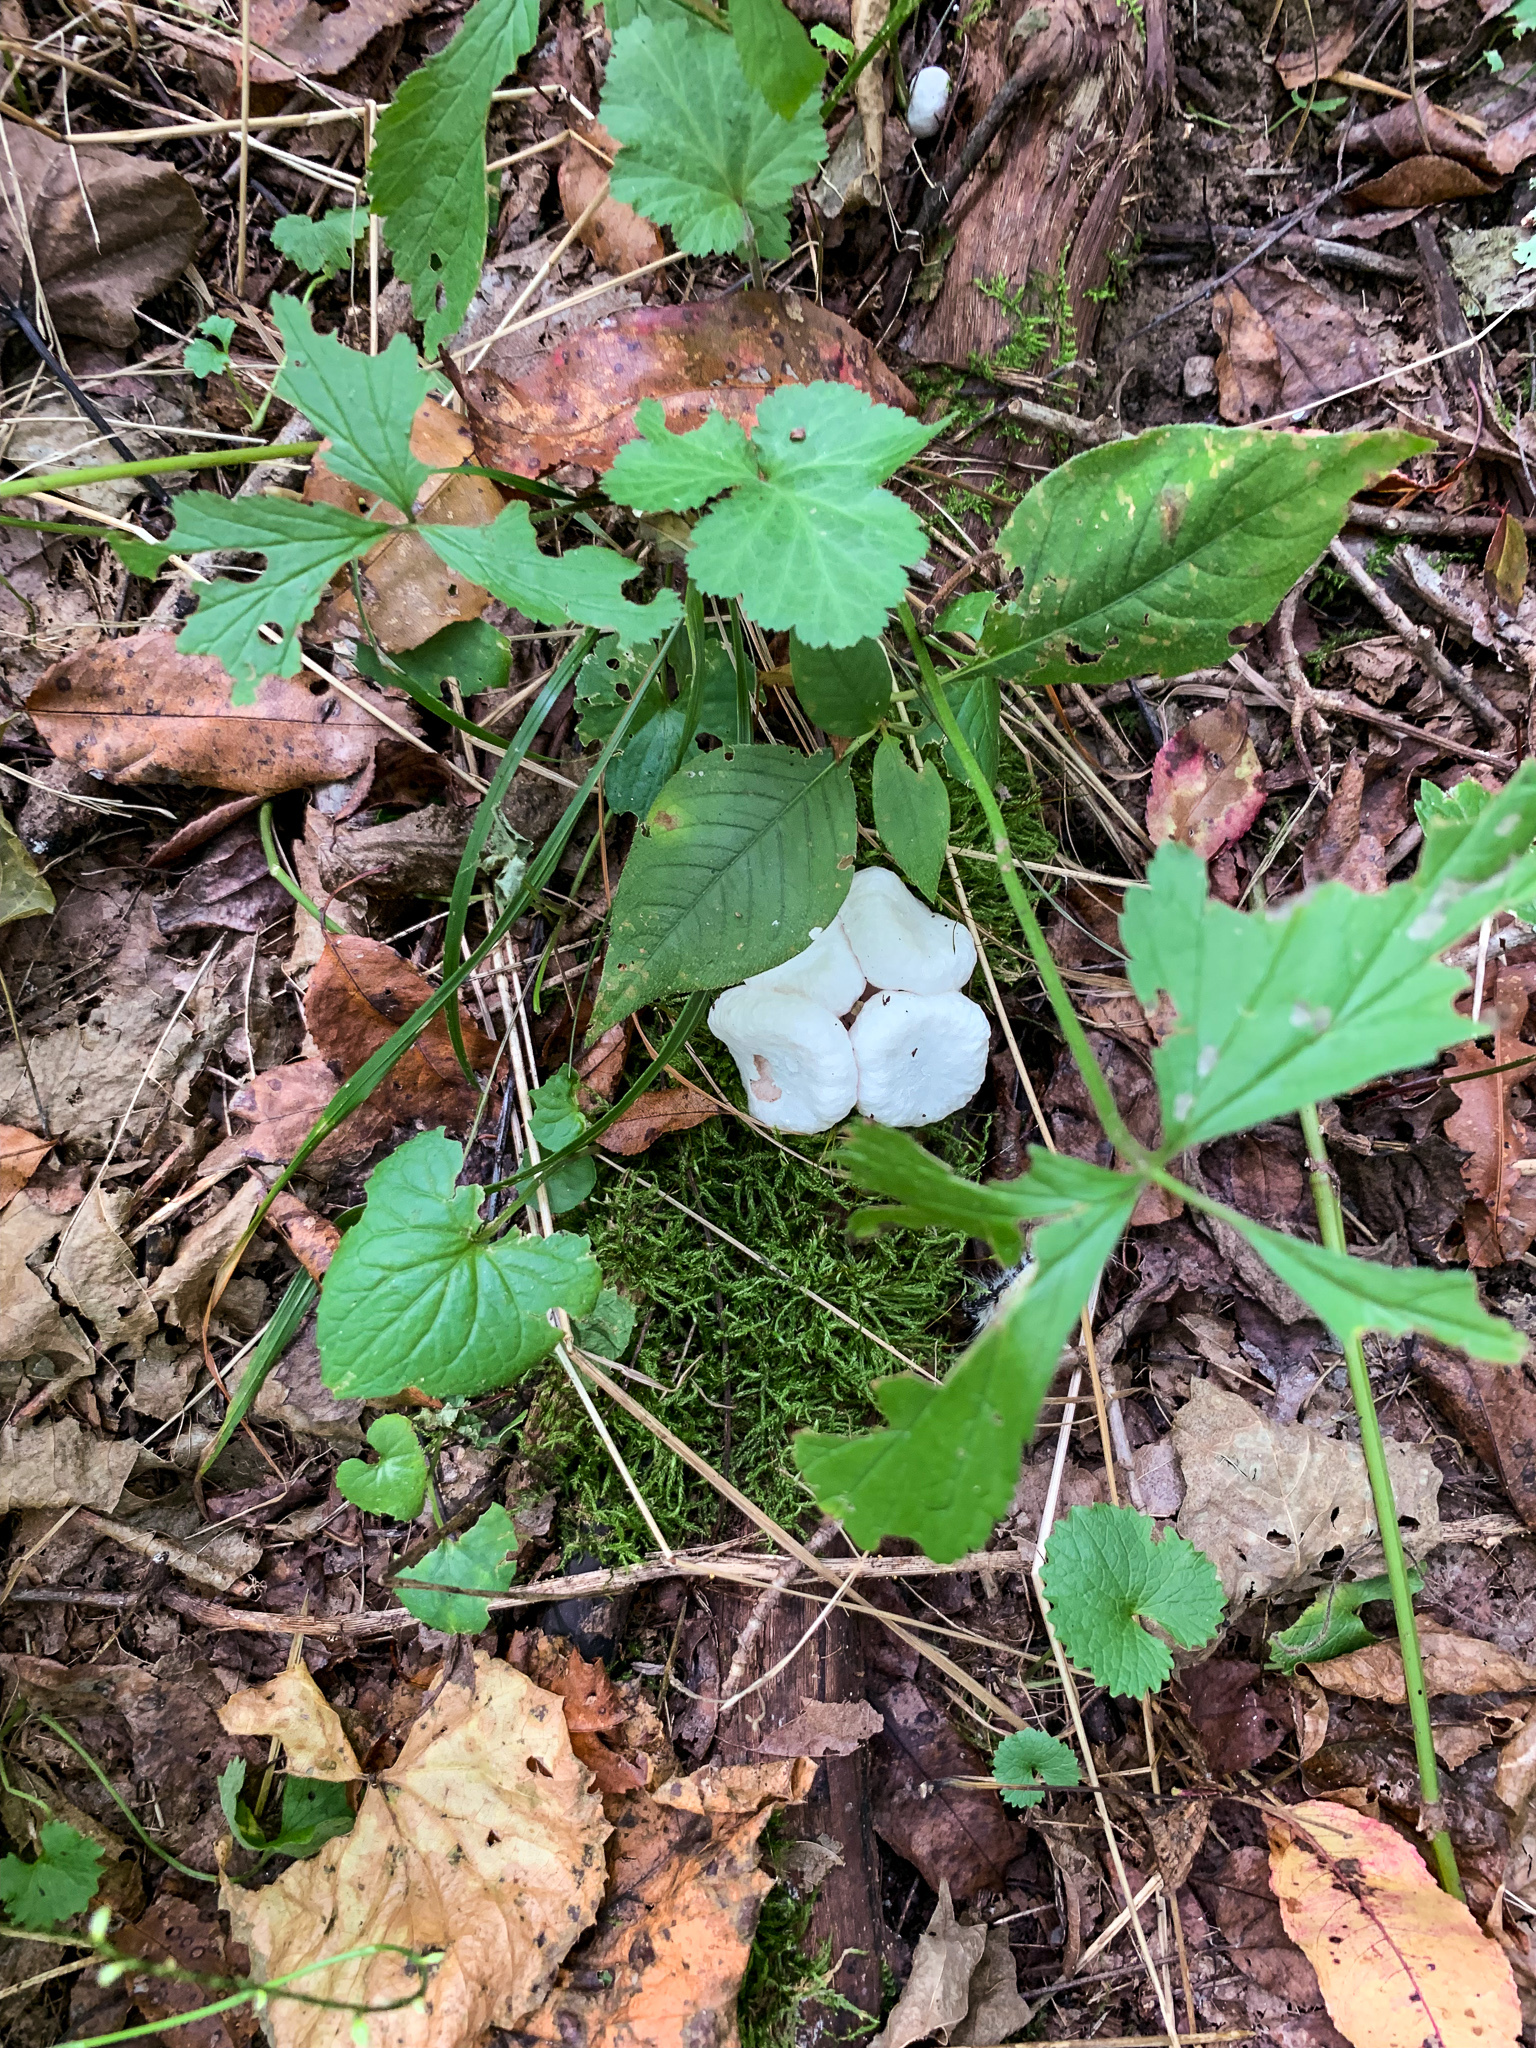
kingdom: Fungi
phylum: Basidiomycota
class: Agaricomycetes
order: Agaricales
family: Entolomataceae
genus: Entoloma
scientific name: Entoloma abortivum
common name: Aborted entoloma
